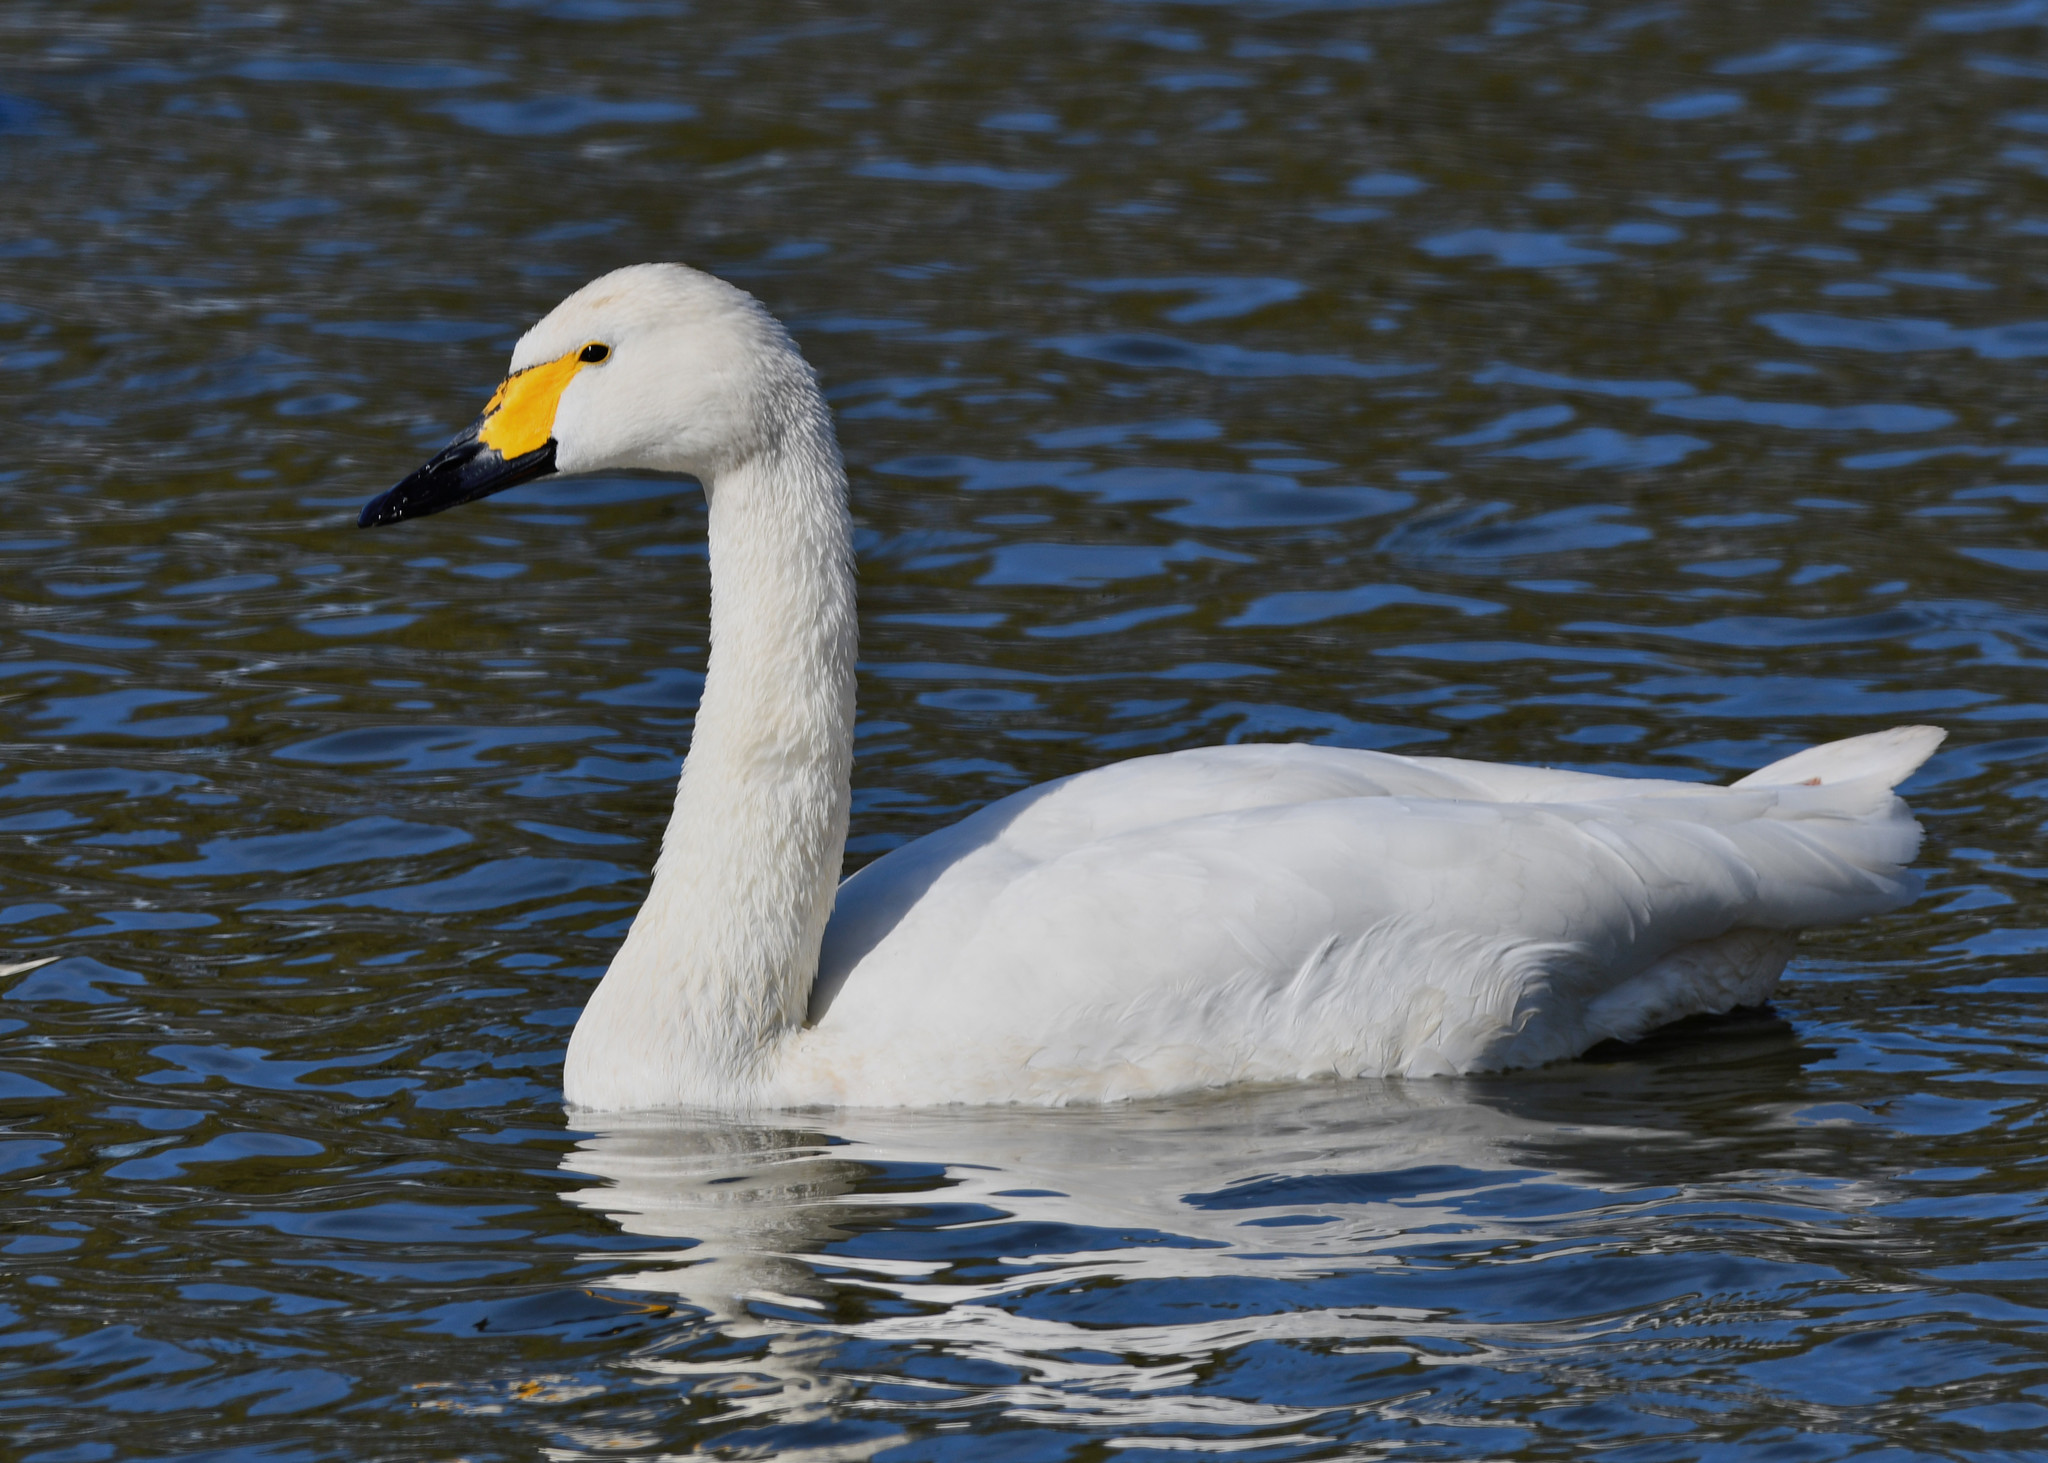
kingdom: Animalia
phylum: Chordata
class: Aves
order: Anseriformes
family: Anatidae
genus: Cygnus
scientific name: Cygnus columbianus
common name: Tundra swan
